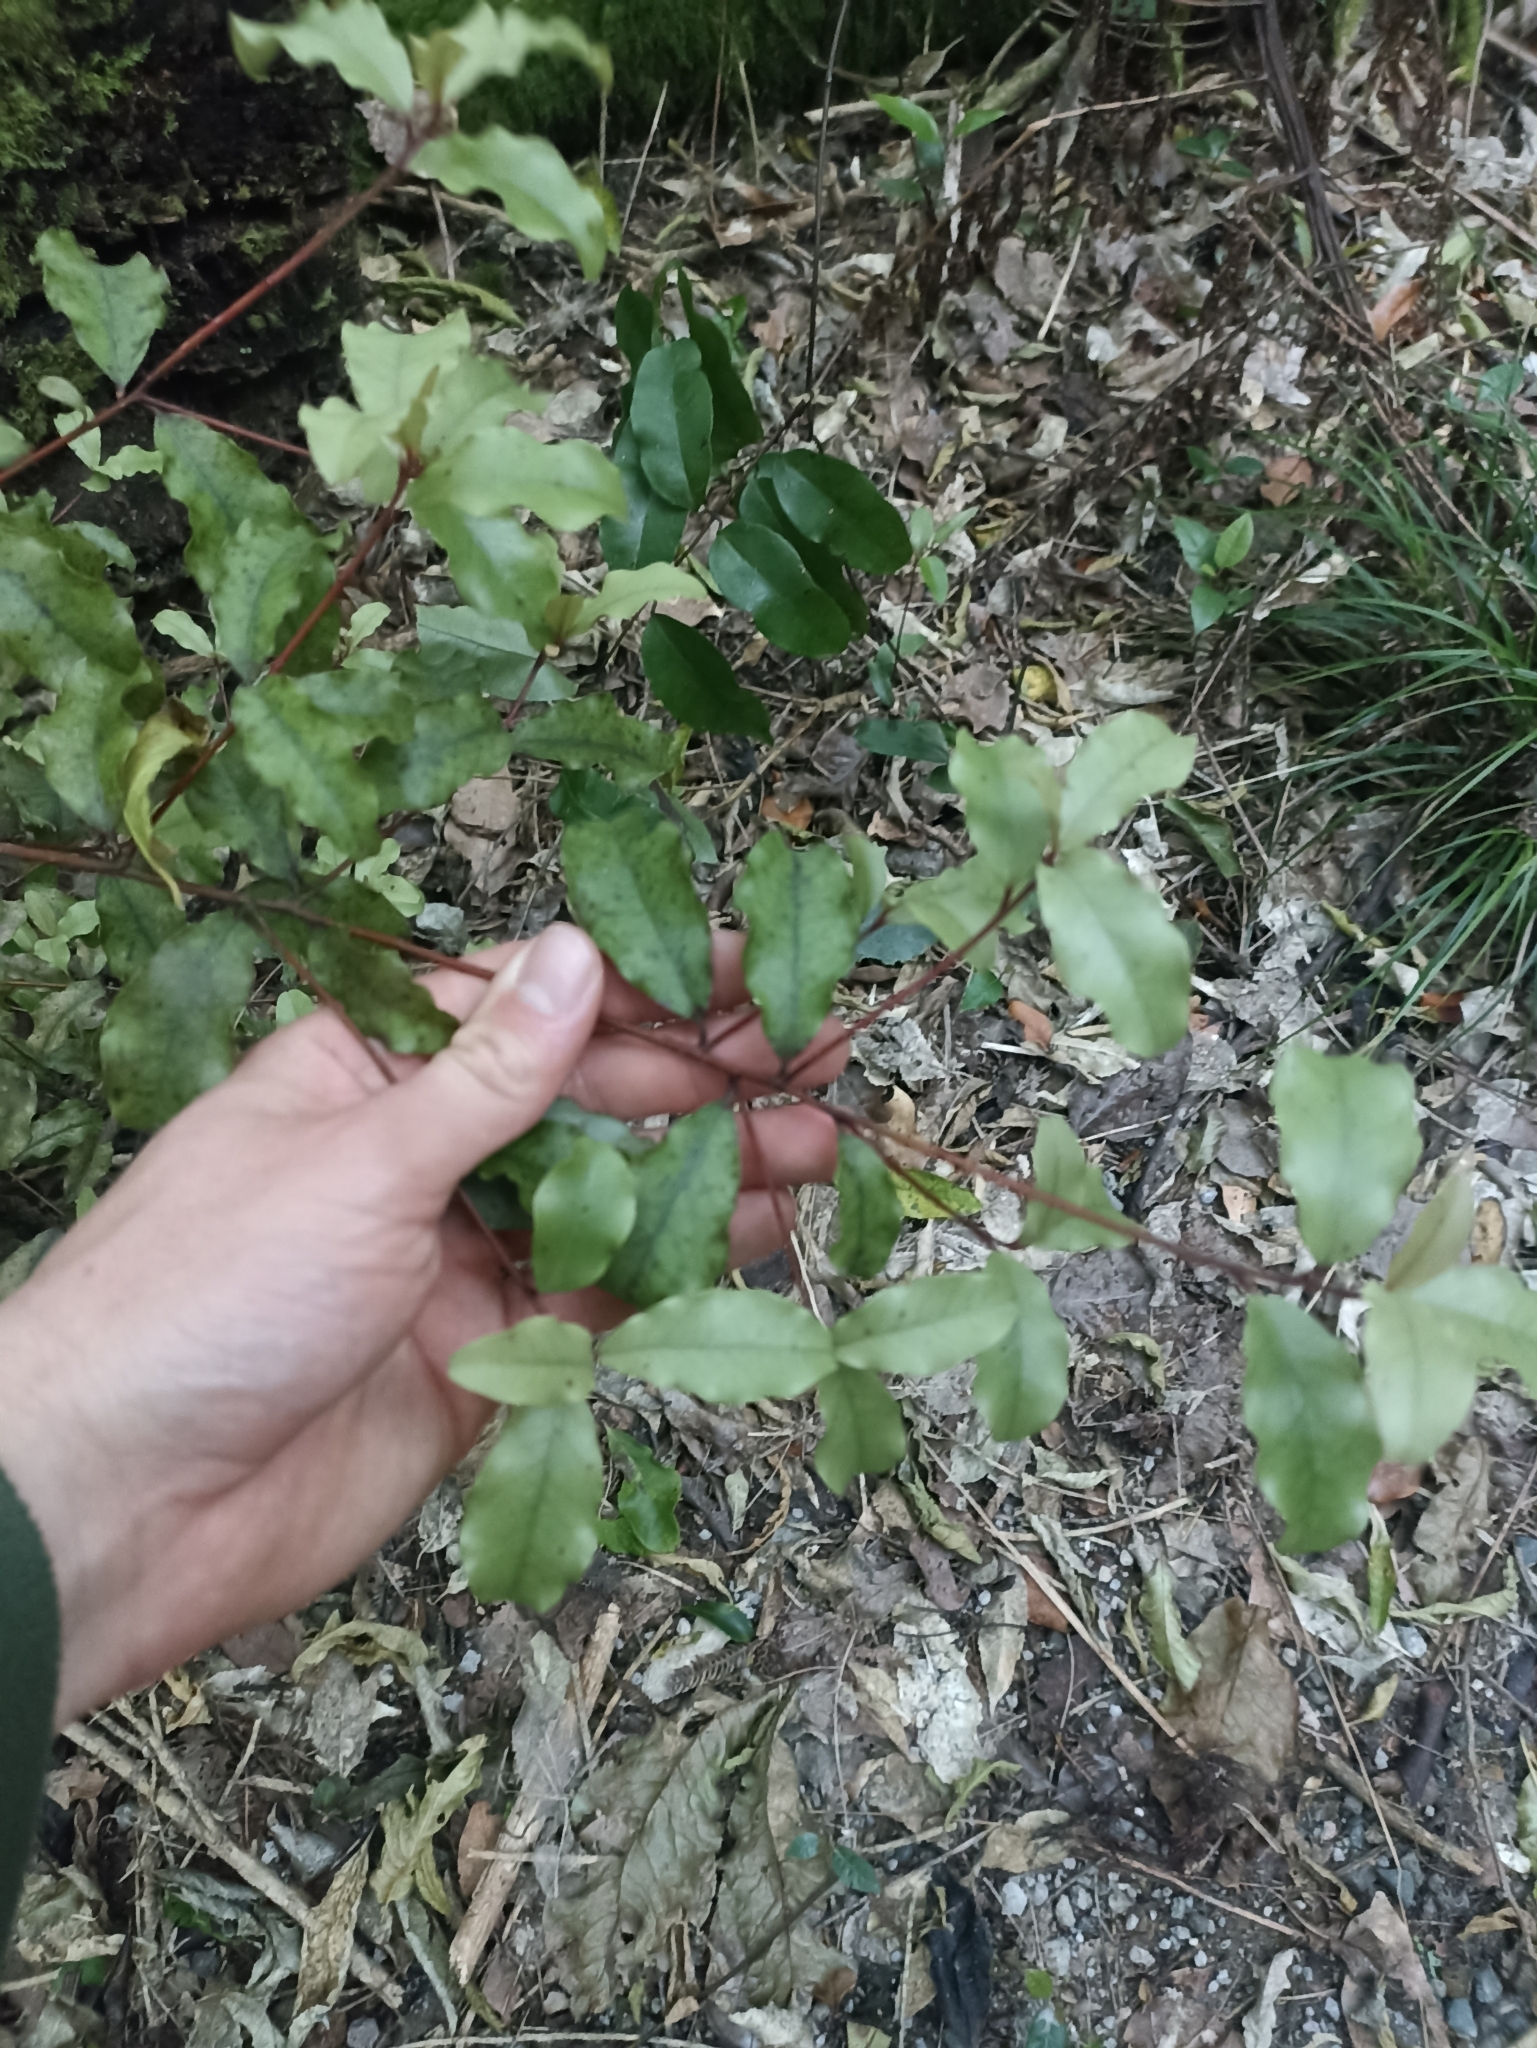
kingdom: Plantae
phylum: Tracheophyta
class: Magnoliopsida
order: Ericales
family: Primulaceae
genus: Myrsine
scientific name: Myrsine australis
